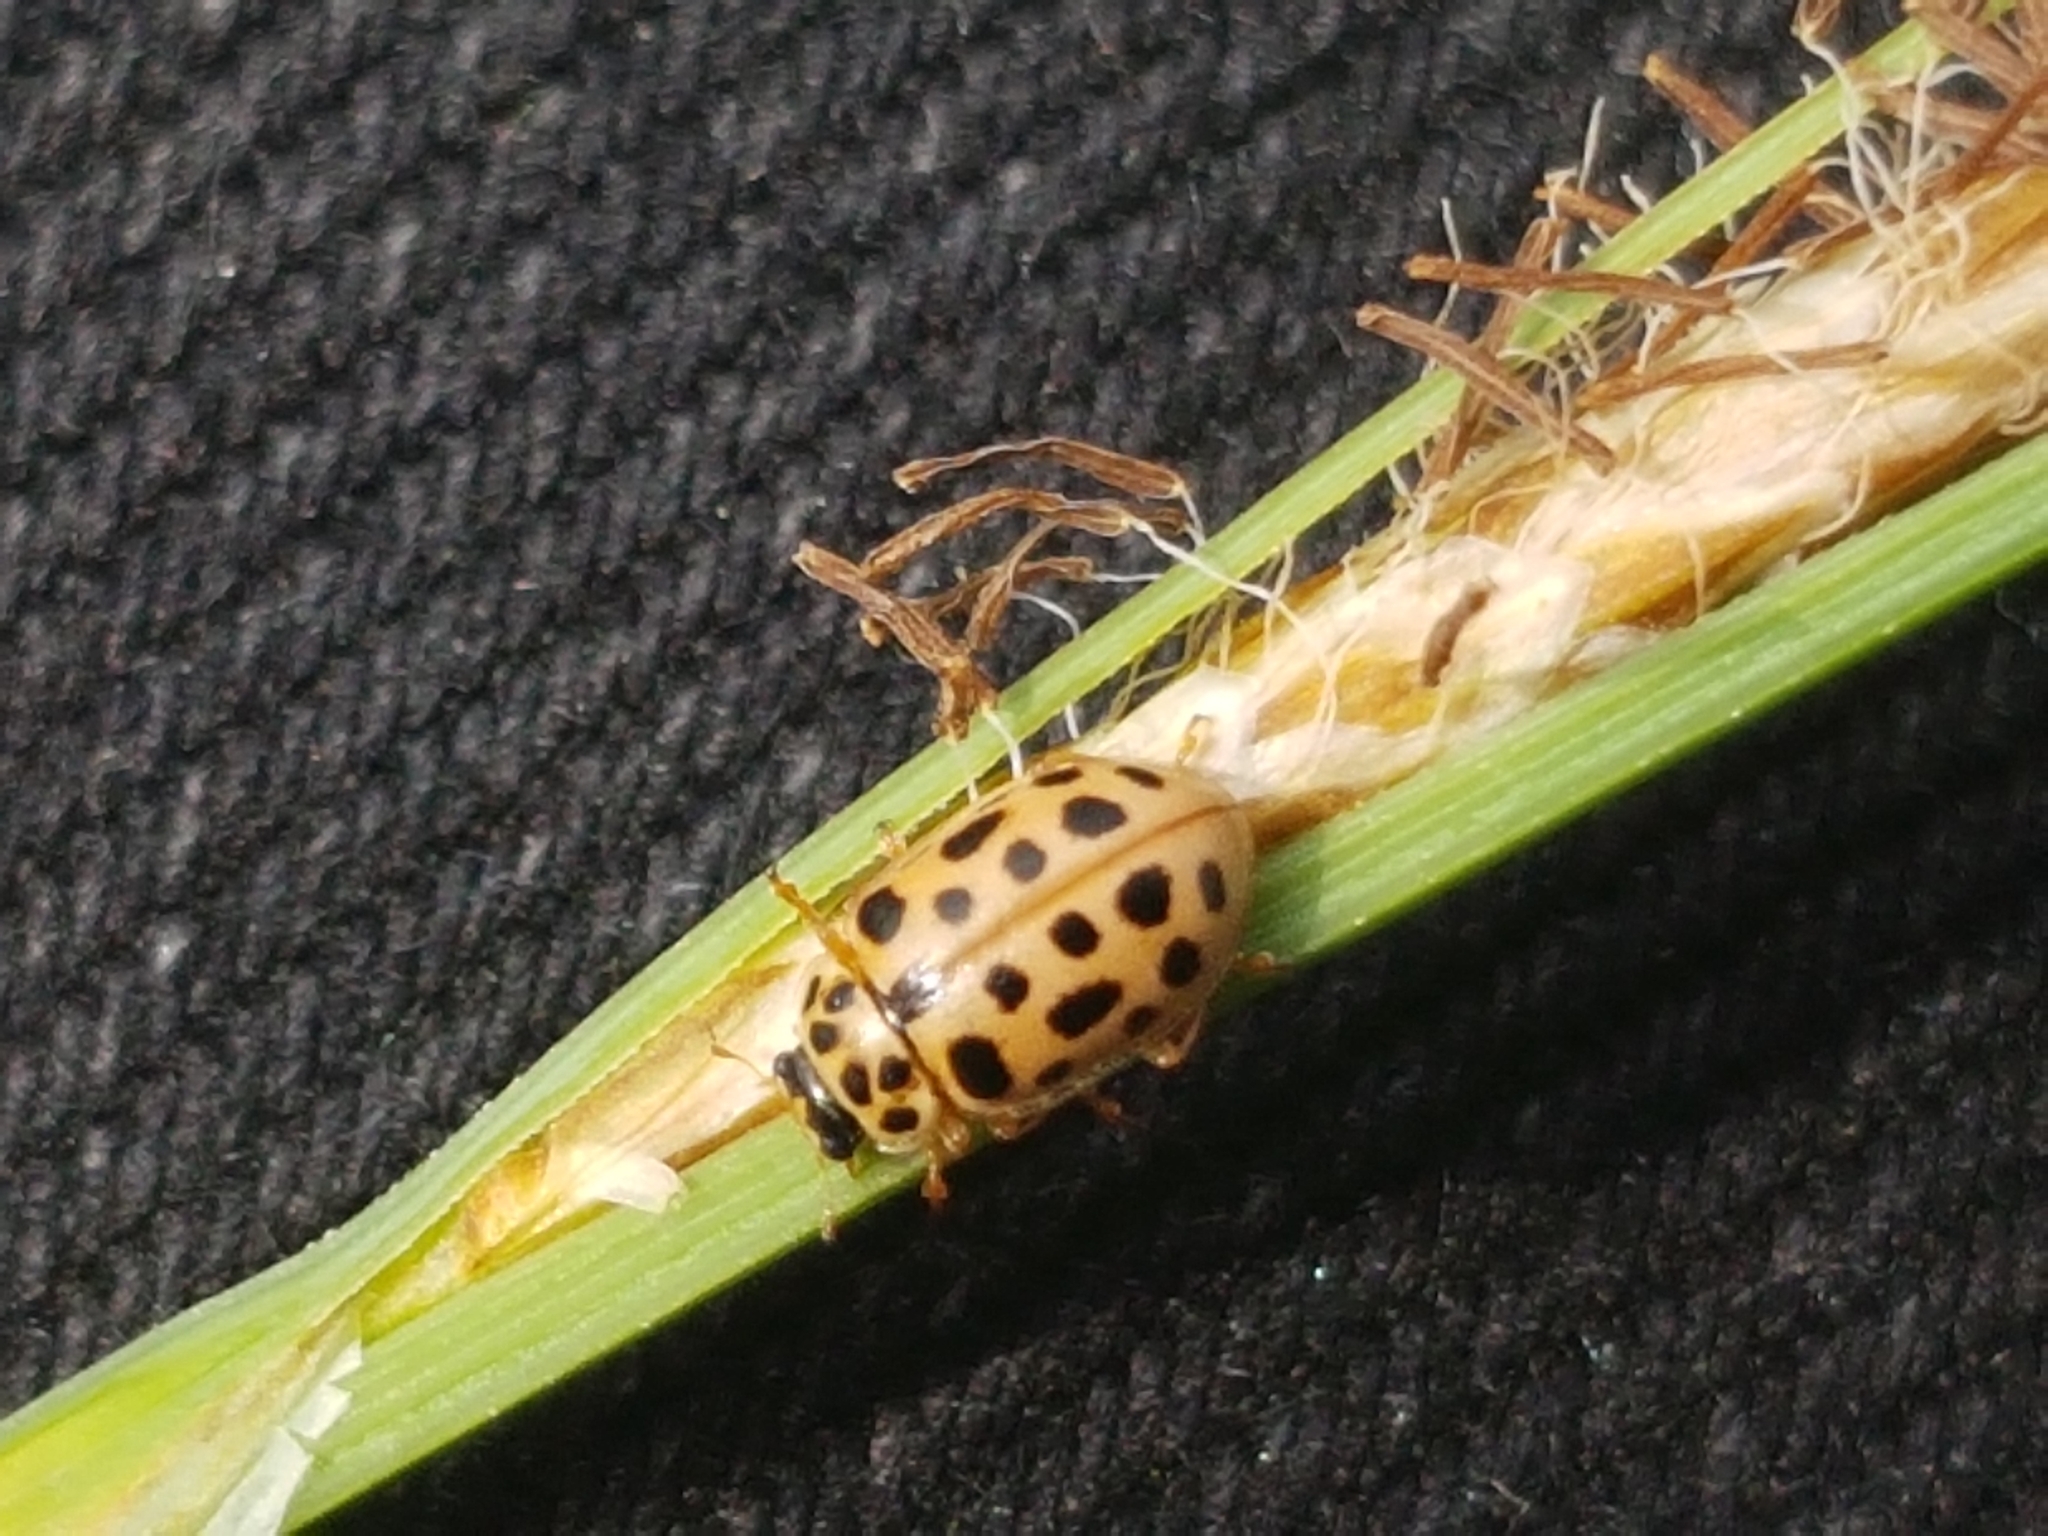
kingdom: Animalia
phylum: Arthropoda
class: Insecta
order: Coleoptera
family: Coccinellidae
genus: Anisosticta
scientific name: Anisosticta novemdecimpunctata
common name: Water ladybird
